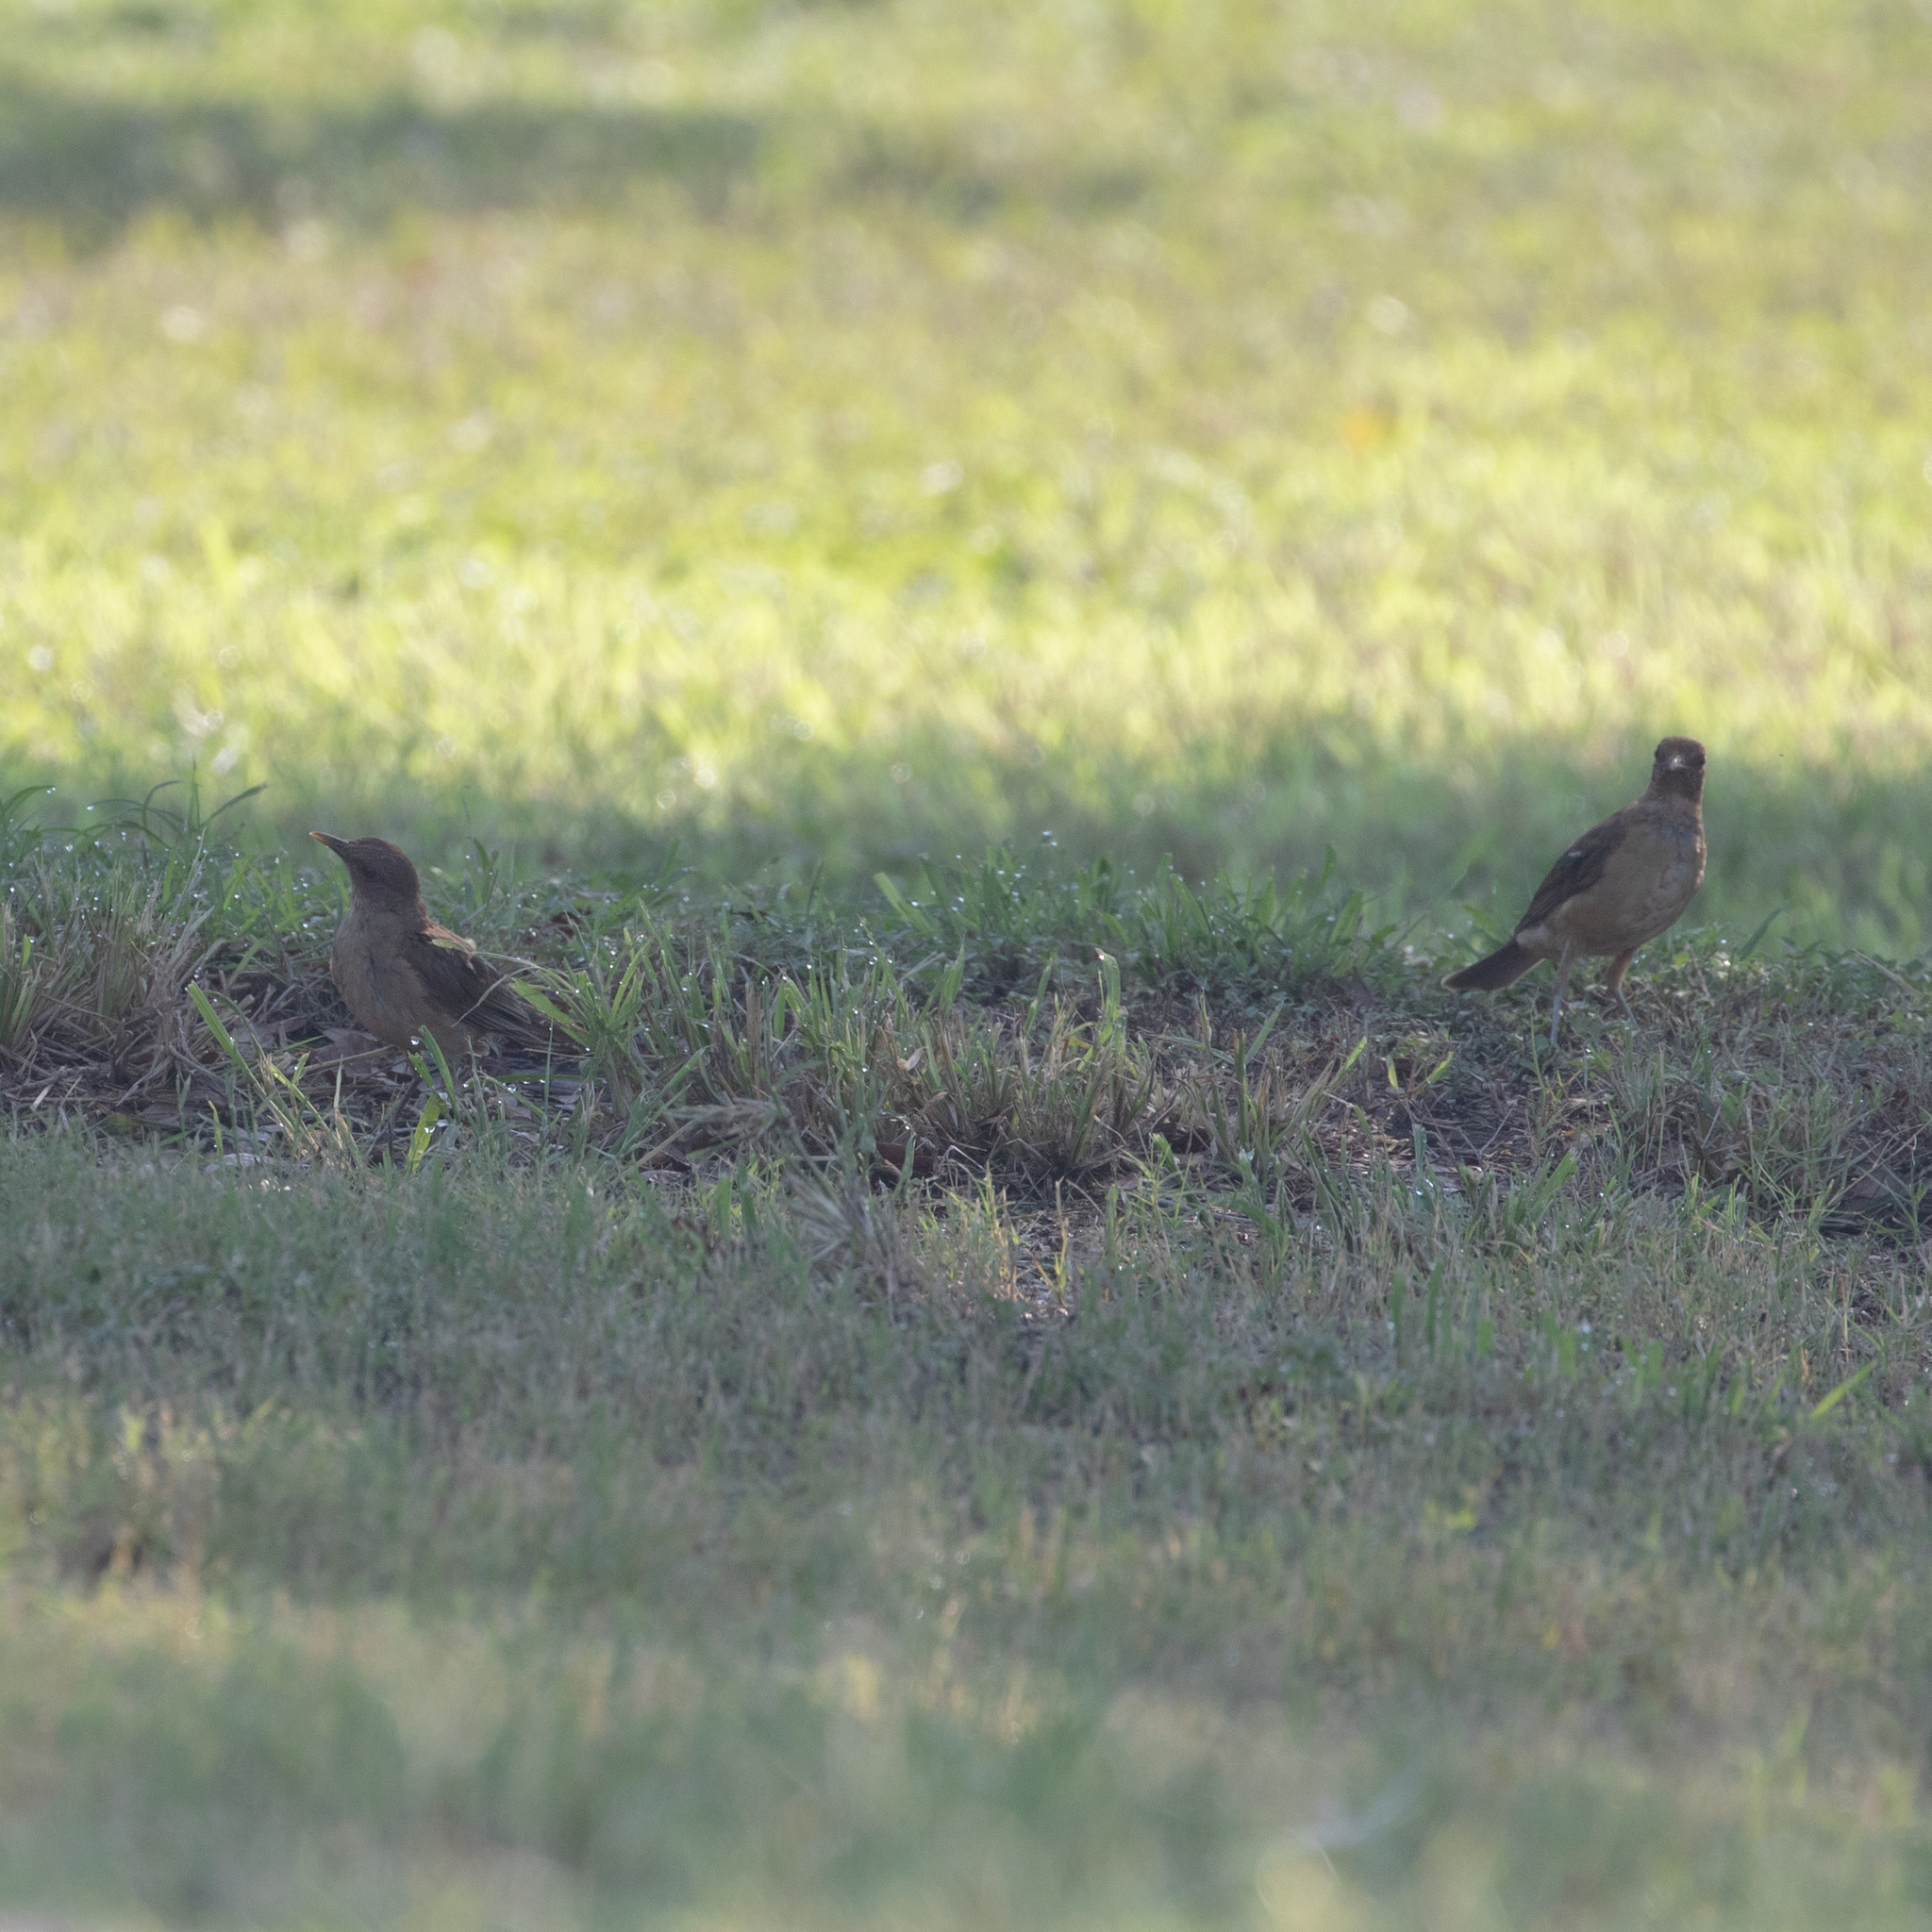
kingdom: Animalia
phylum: Chordata
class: Aves
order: Passeriformes
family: Turdidae
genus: Turdus
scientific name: Turdus grayi
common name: Clay-colored thrush
